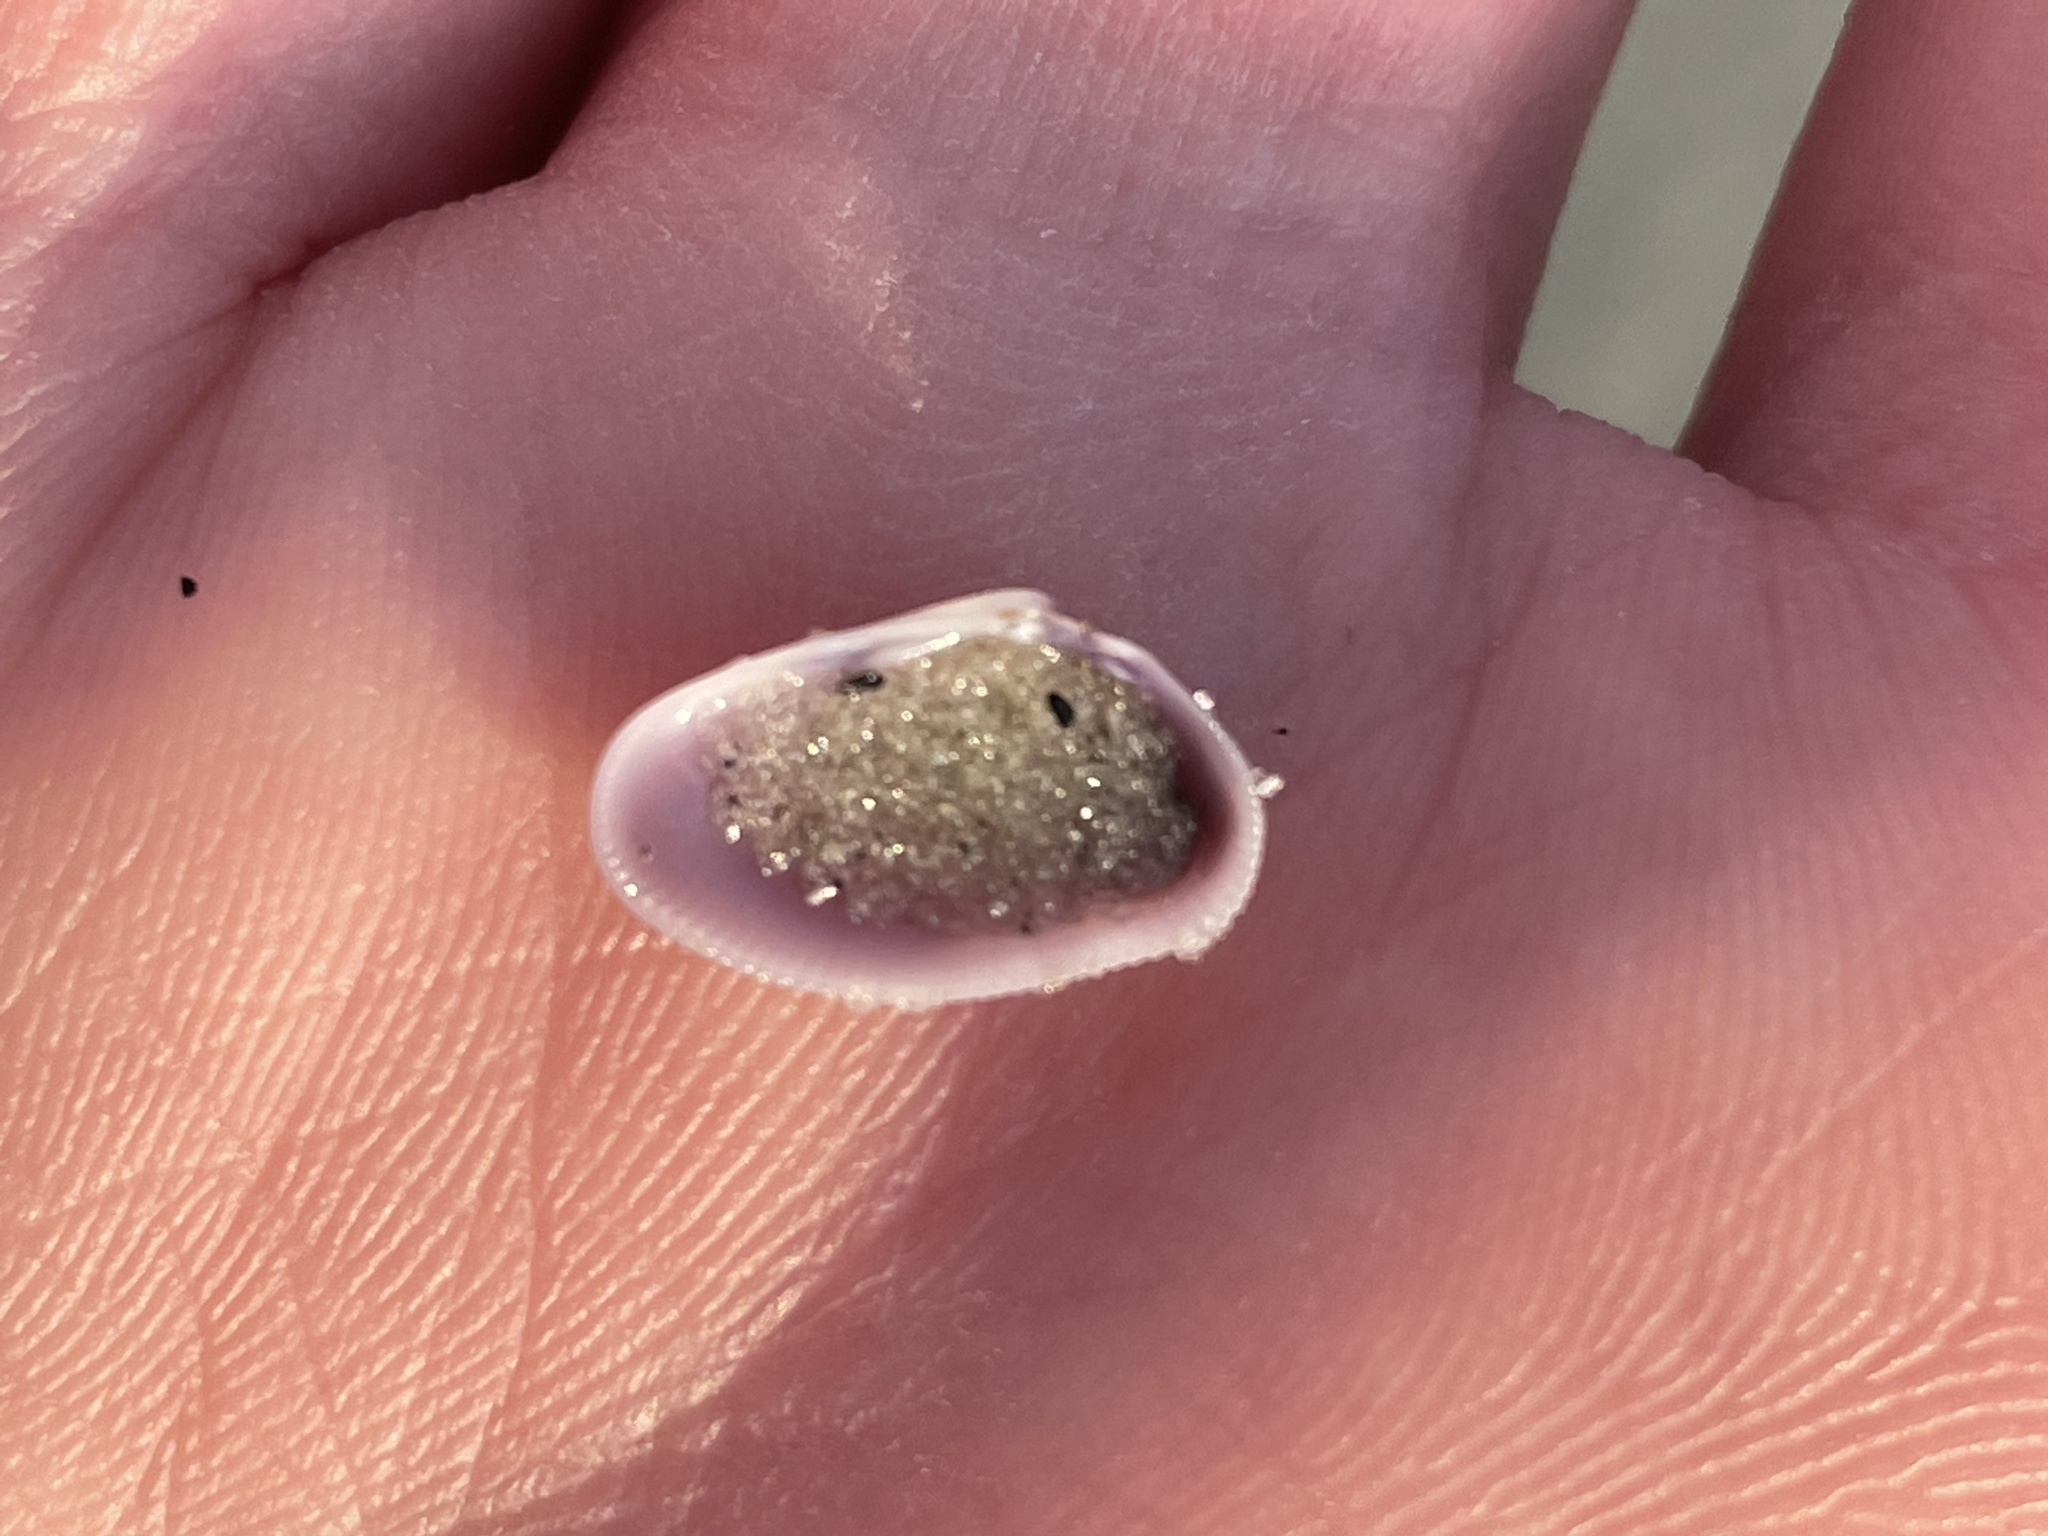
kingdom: Animalia
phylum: Mollusca
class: Bivalvia
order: Cardiida
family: Donacidae
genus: Donax
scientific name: Donax variabilis
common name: Butterfly shell
